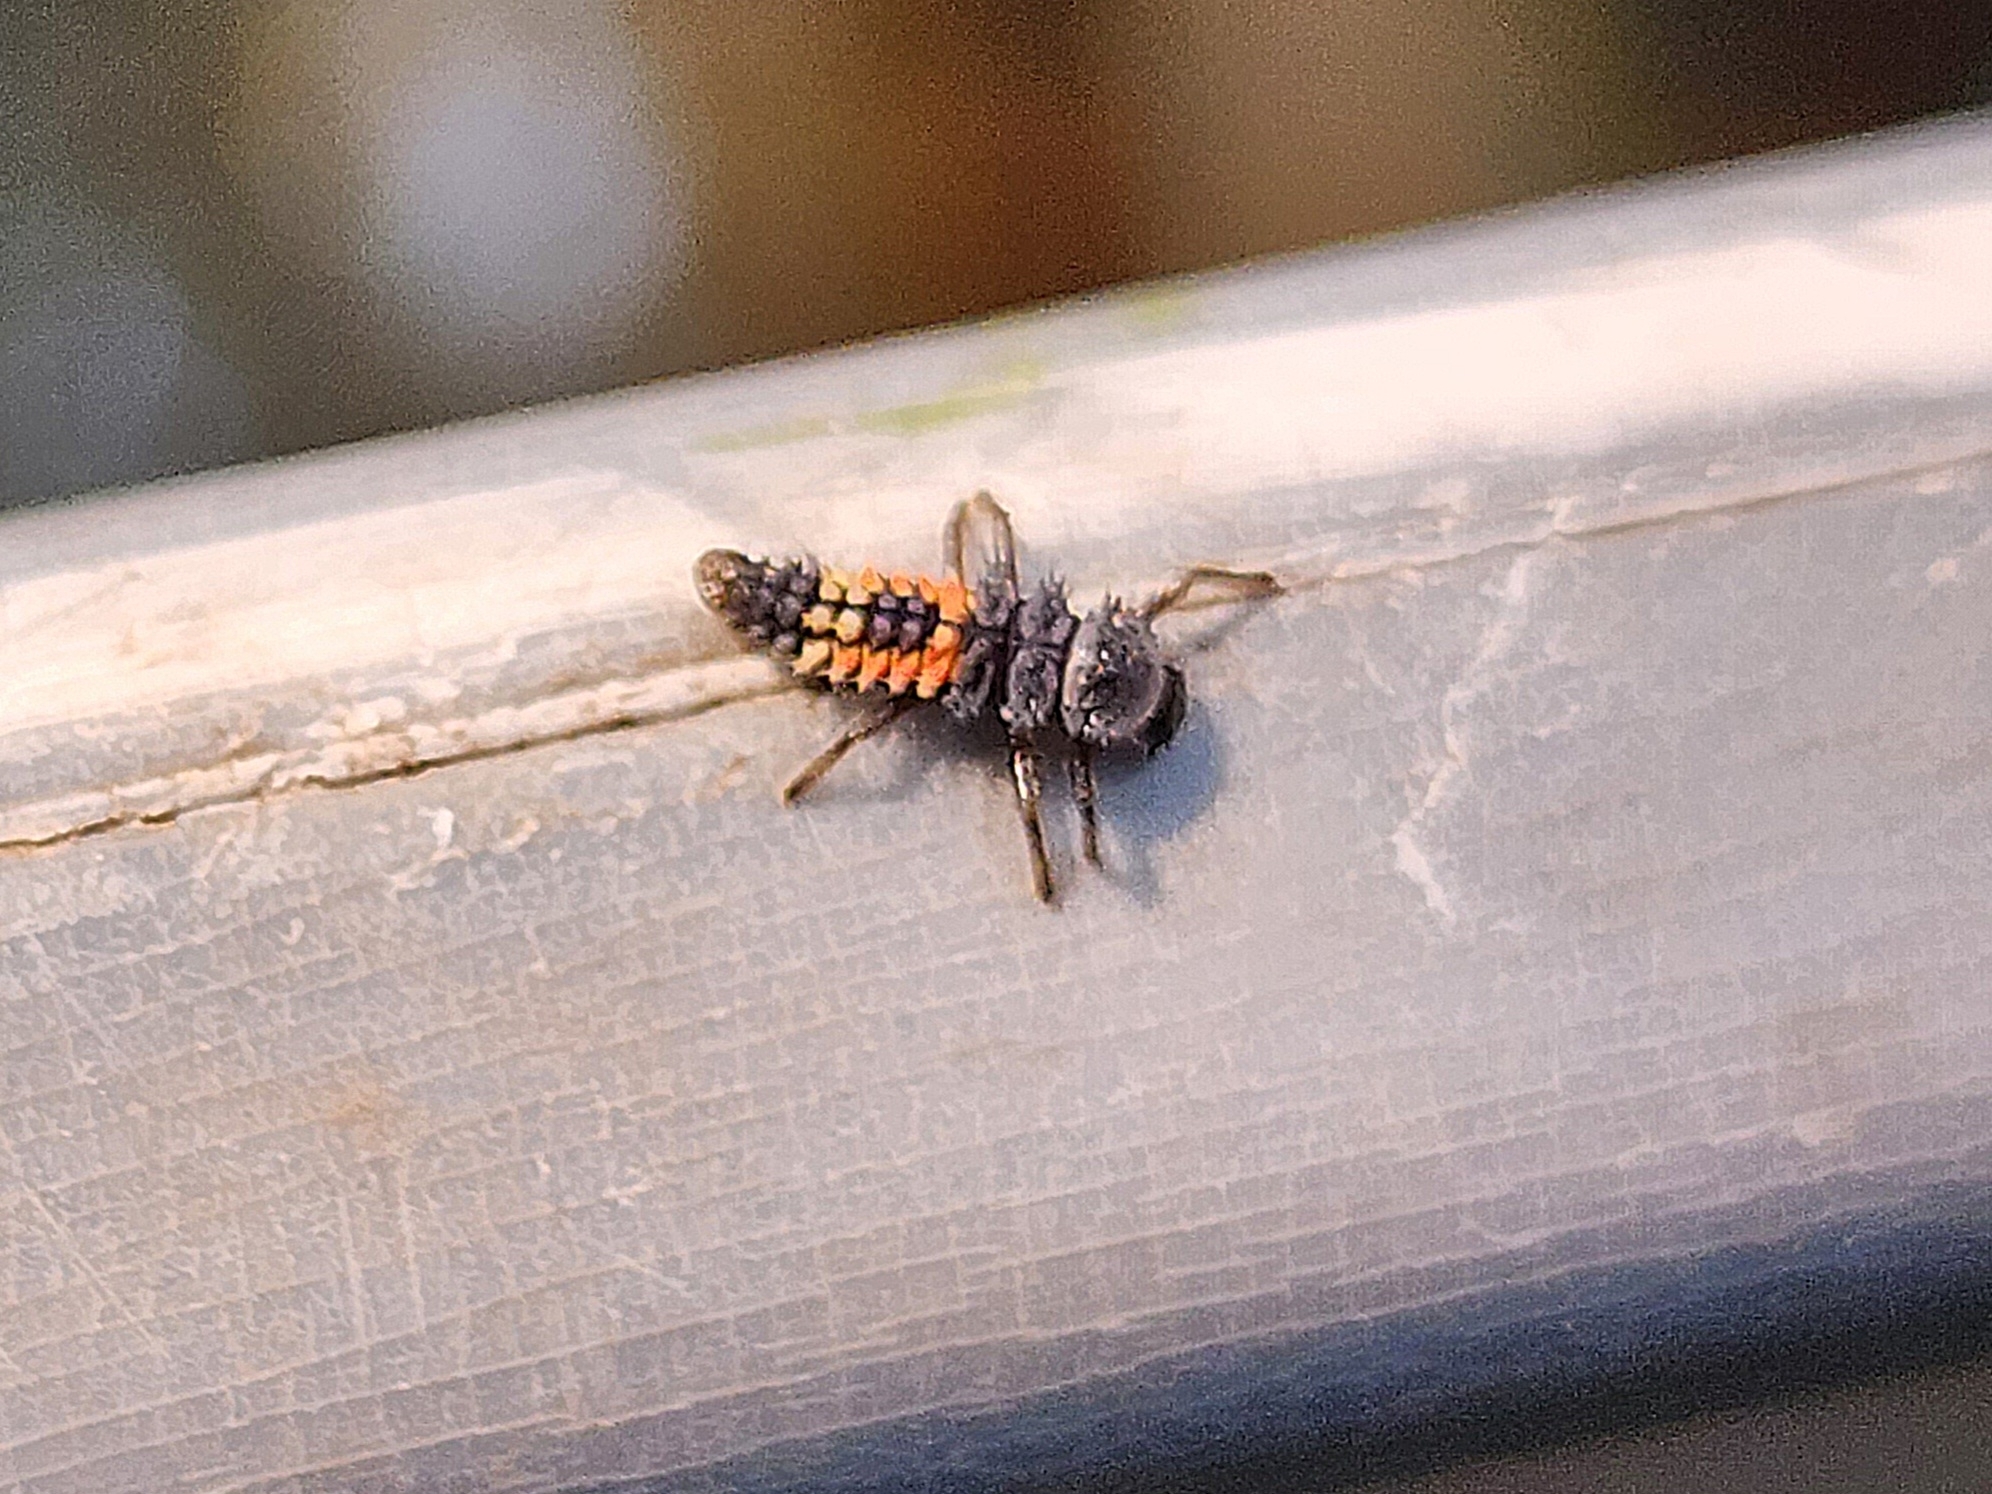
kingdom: Animalia
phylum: Arthropoda
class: Insecta
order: Coleoptera
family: Coccinellidae
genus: Harmonia
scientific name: Harmonia axyridis
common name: Harlequin ladybird
